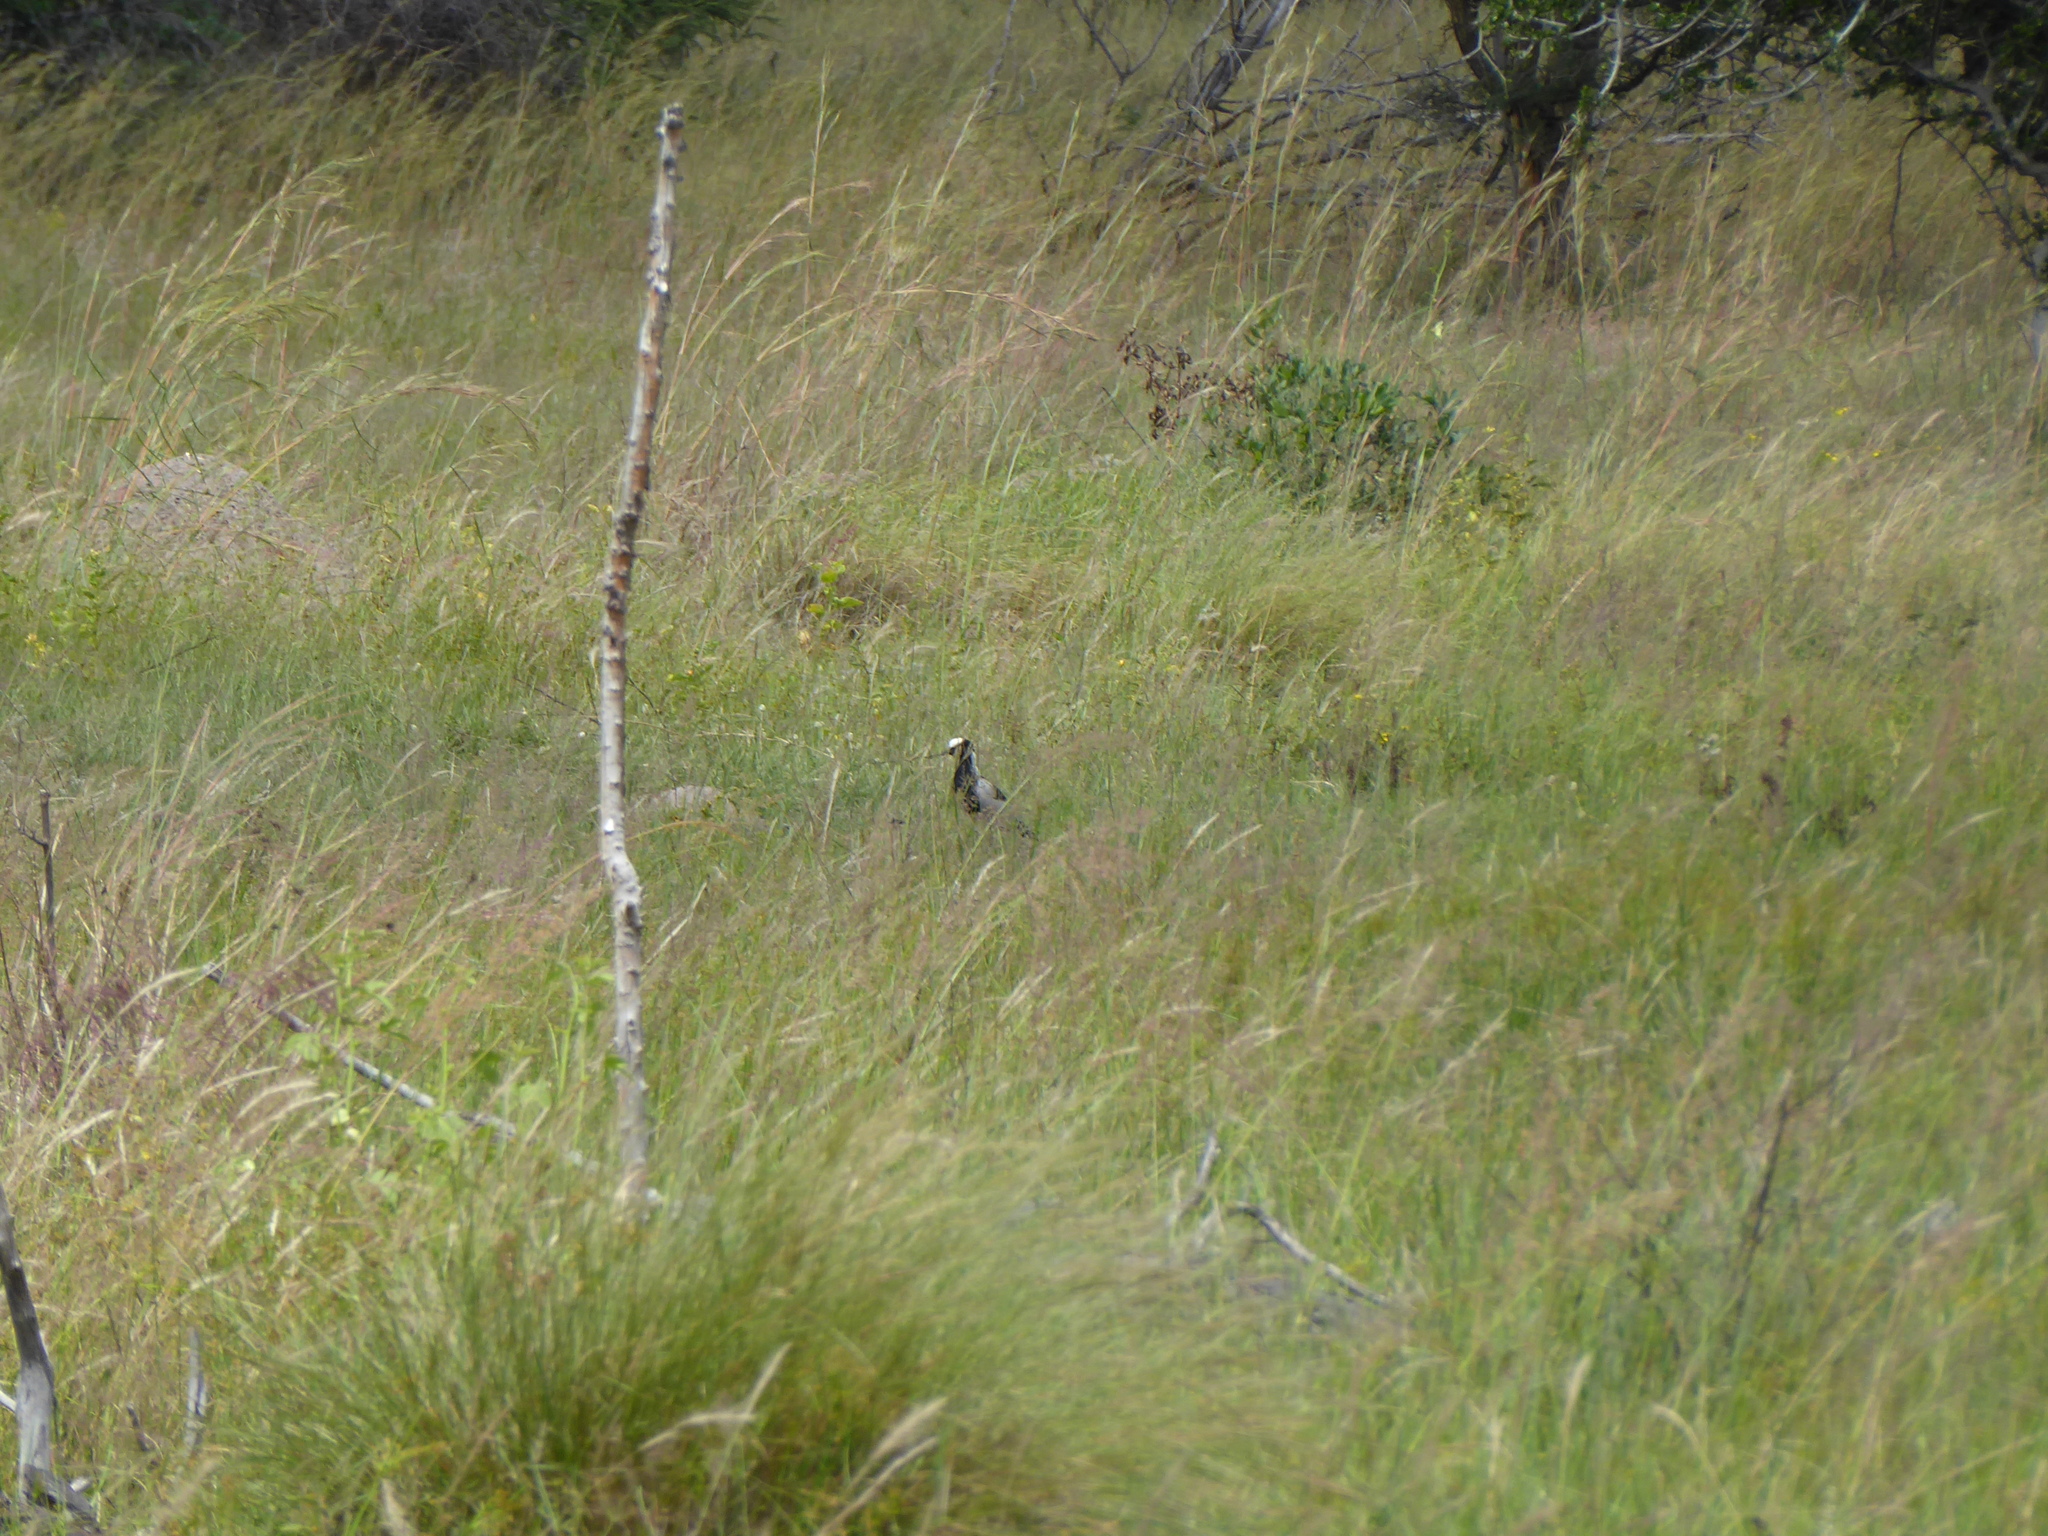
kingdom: Animalia
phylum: Chordata
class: Aves
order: Charadriiformes
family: Charadriidae
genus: Vanellus
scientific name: Vanellus armatus
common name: Blacksmith lapwing
